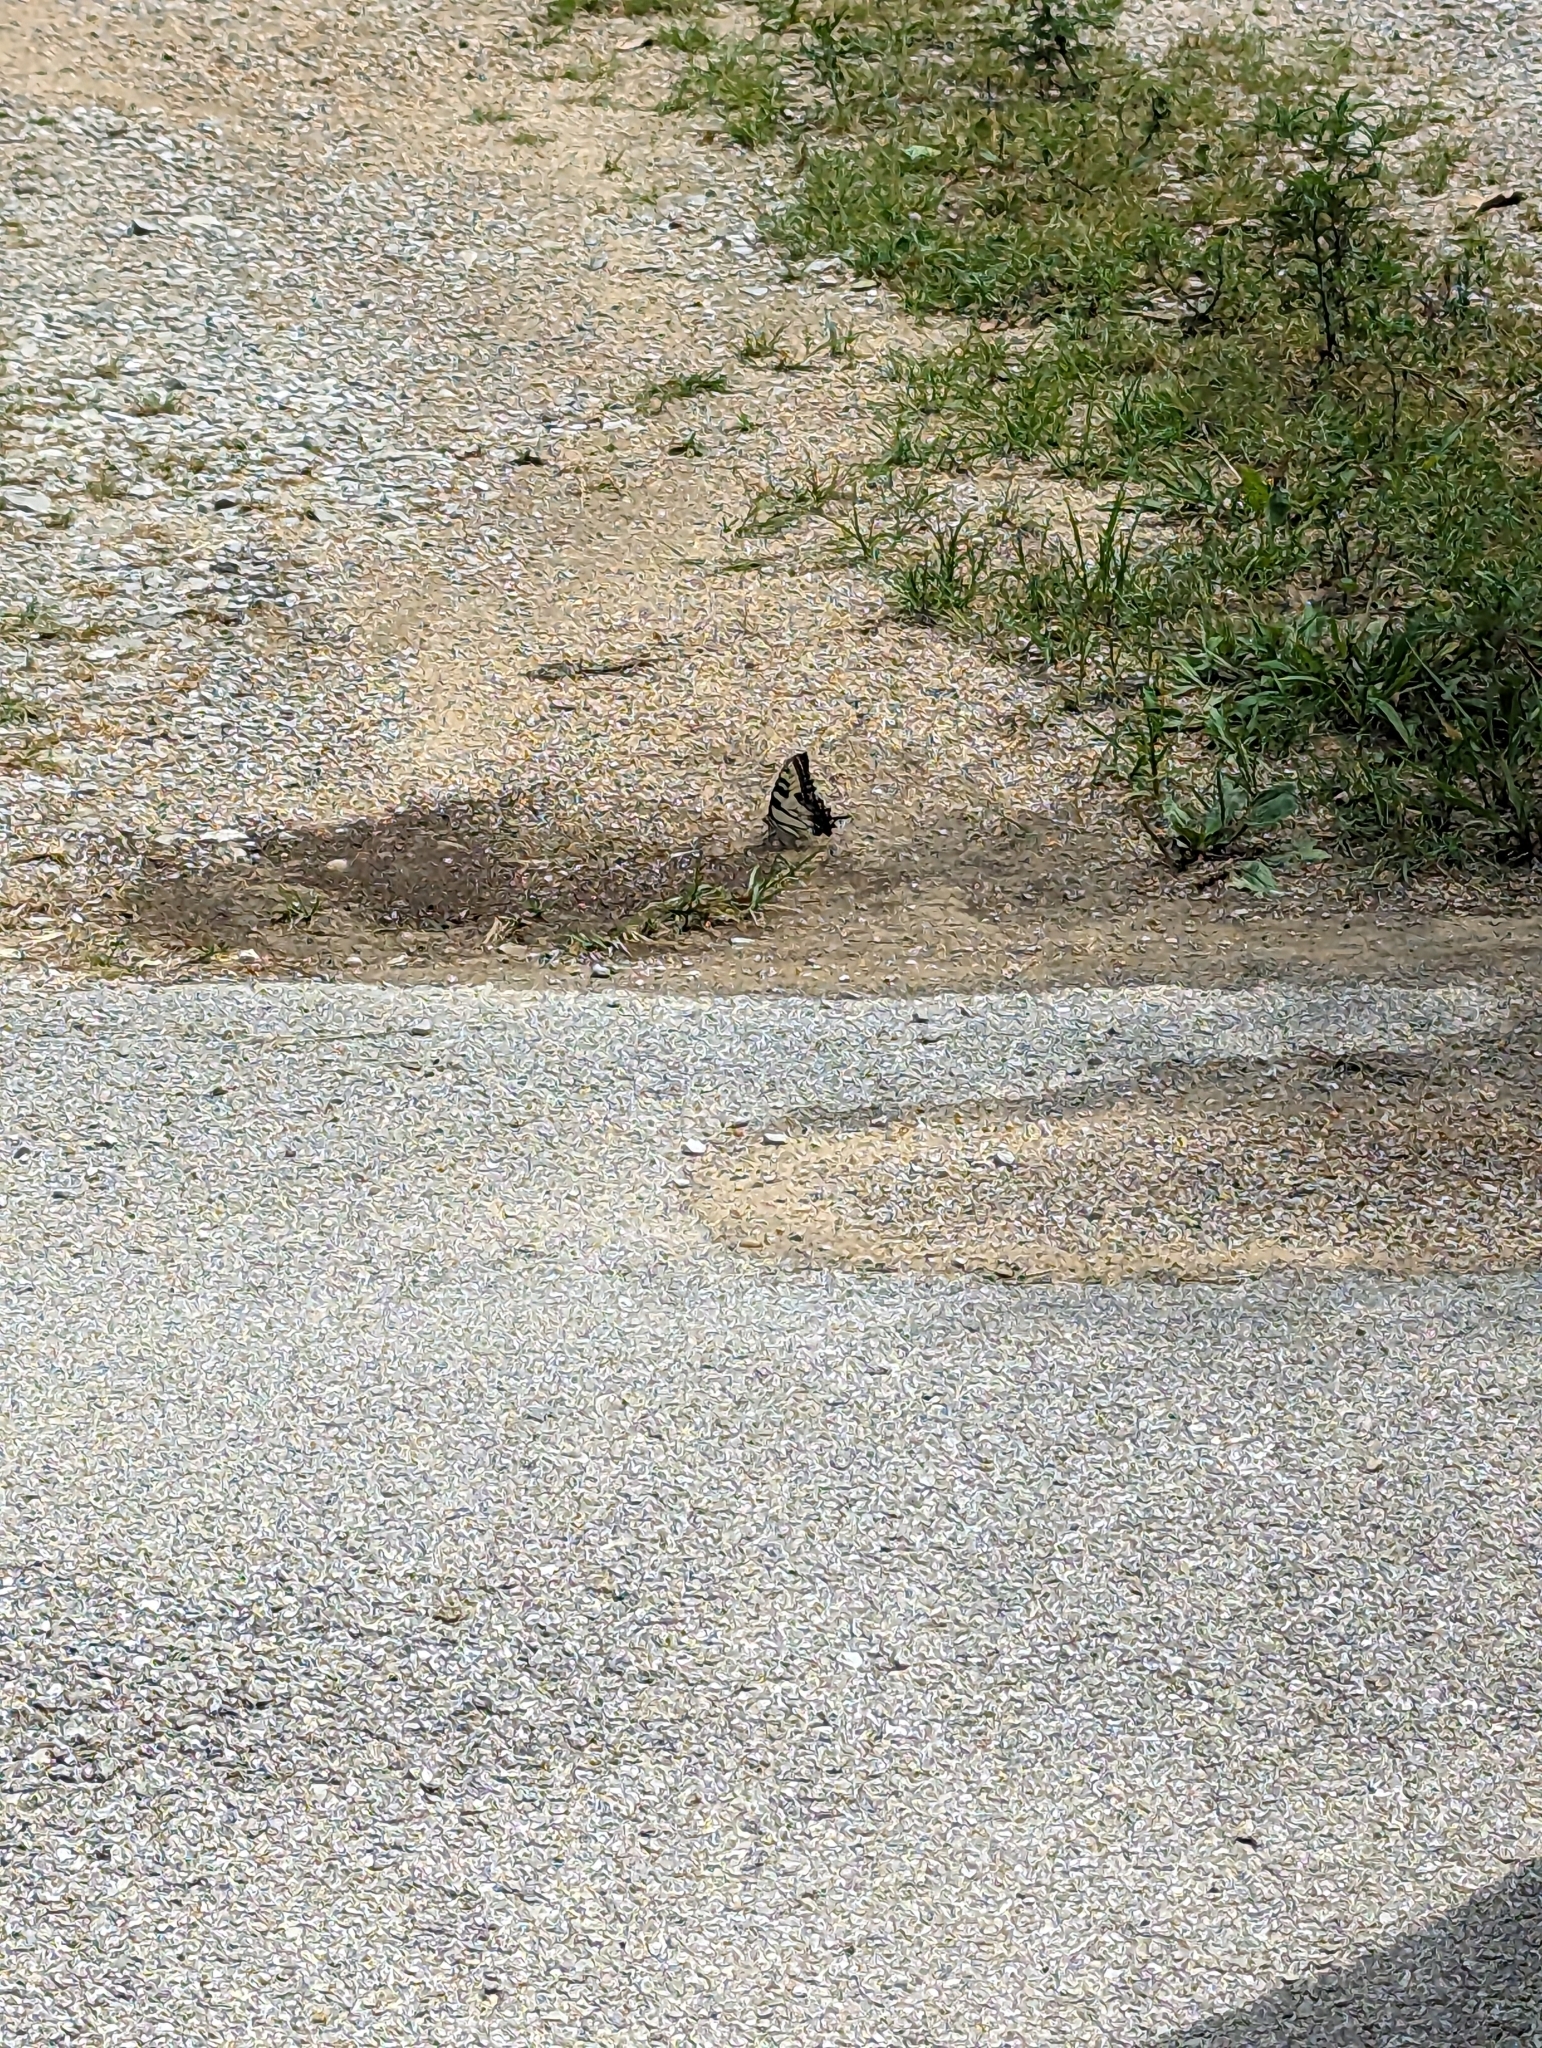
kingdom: Animalia
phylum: Arthropoda
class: Insecta
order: Lepidoptera
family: Papilionidae
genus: Papilio
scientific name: Papilio glaucus
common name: Tiger swallowtail
